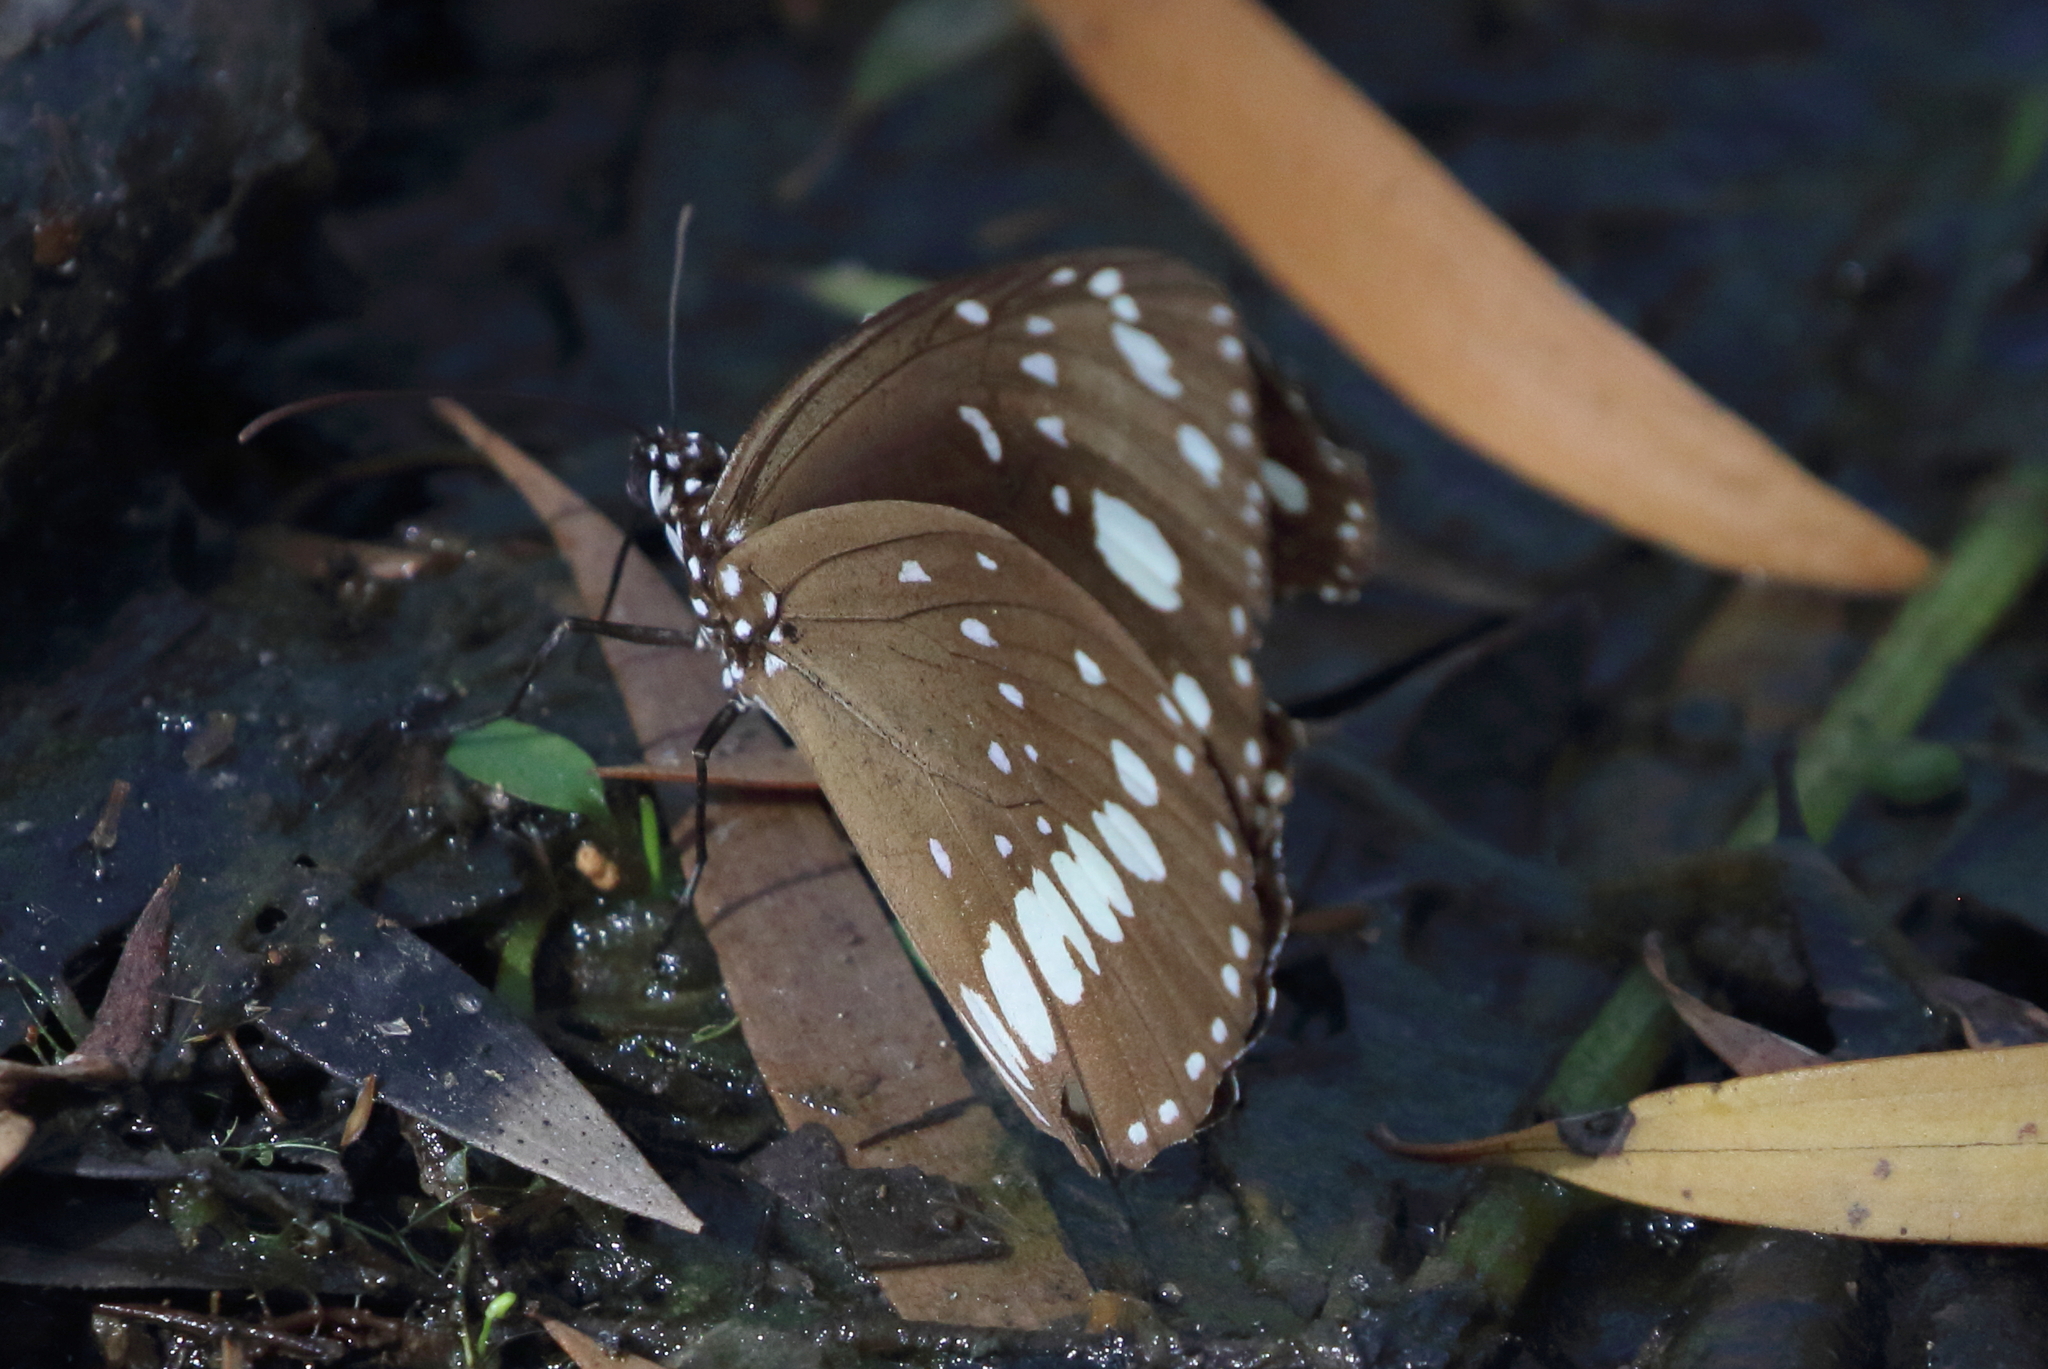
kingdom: Animalia
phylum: Arthropoda
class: Insecta
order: Lepidoptera
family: Nymphalidae
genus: Euploea
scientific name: Euploea core
